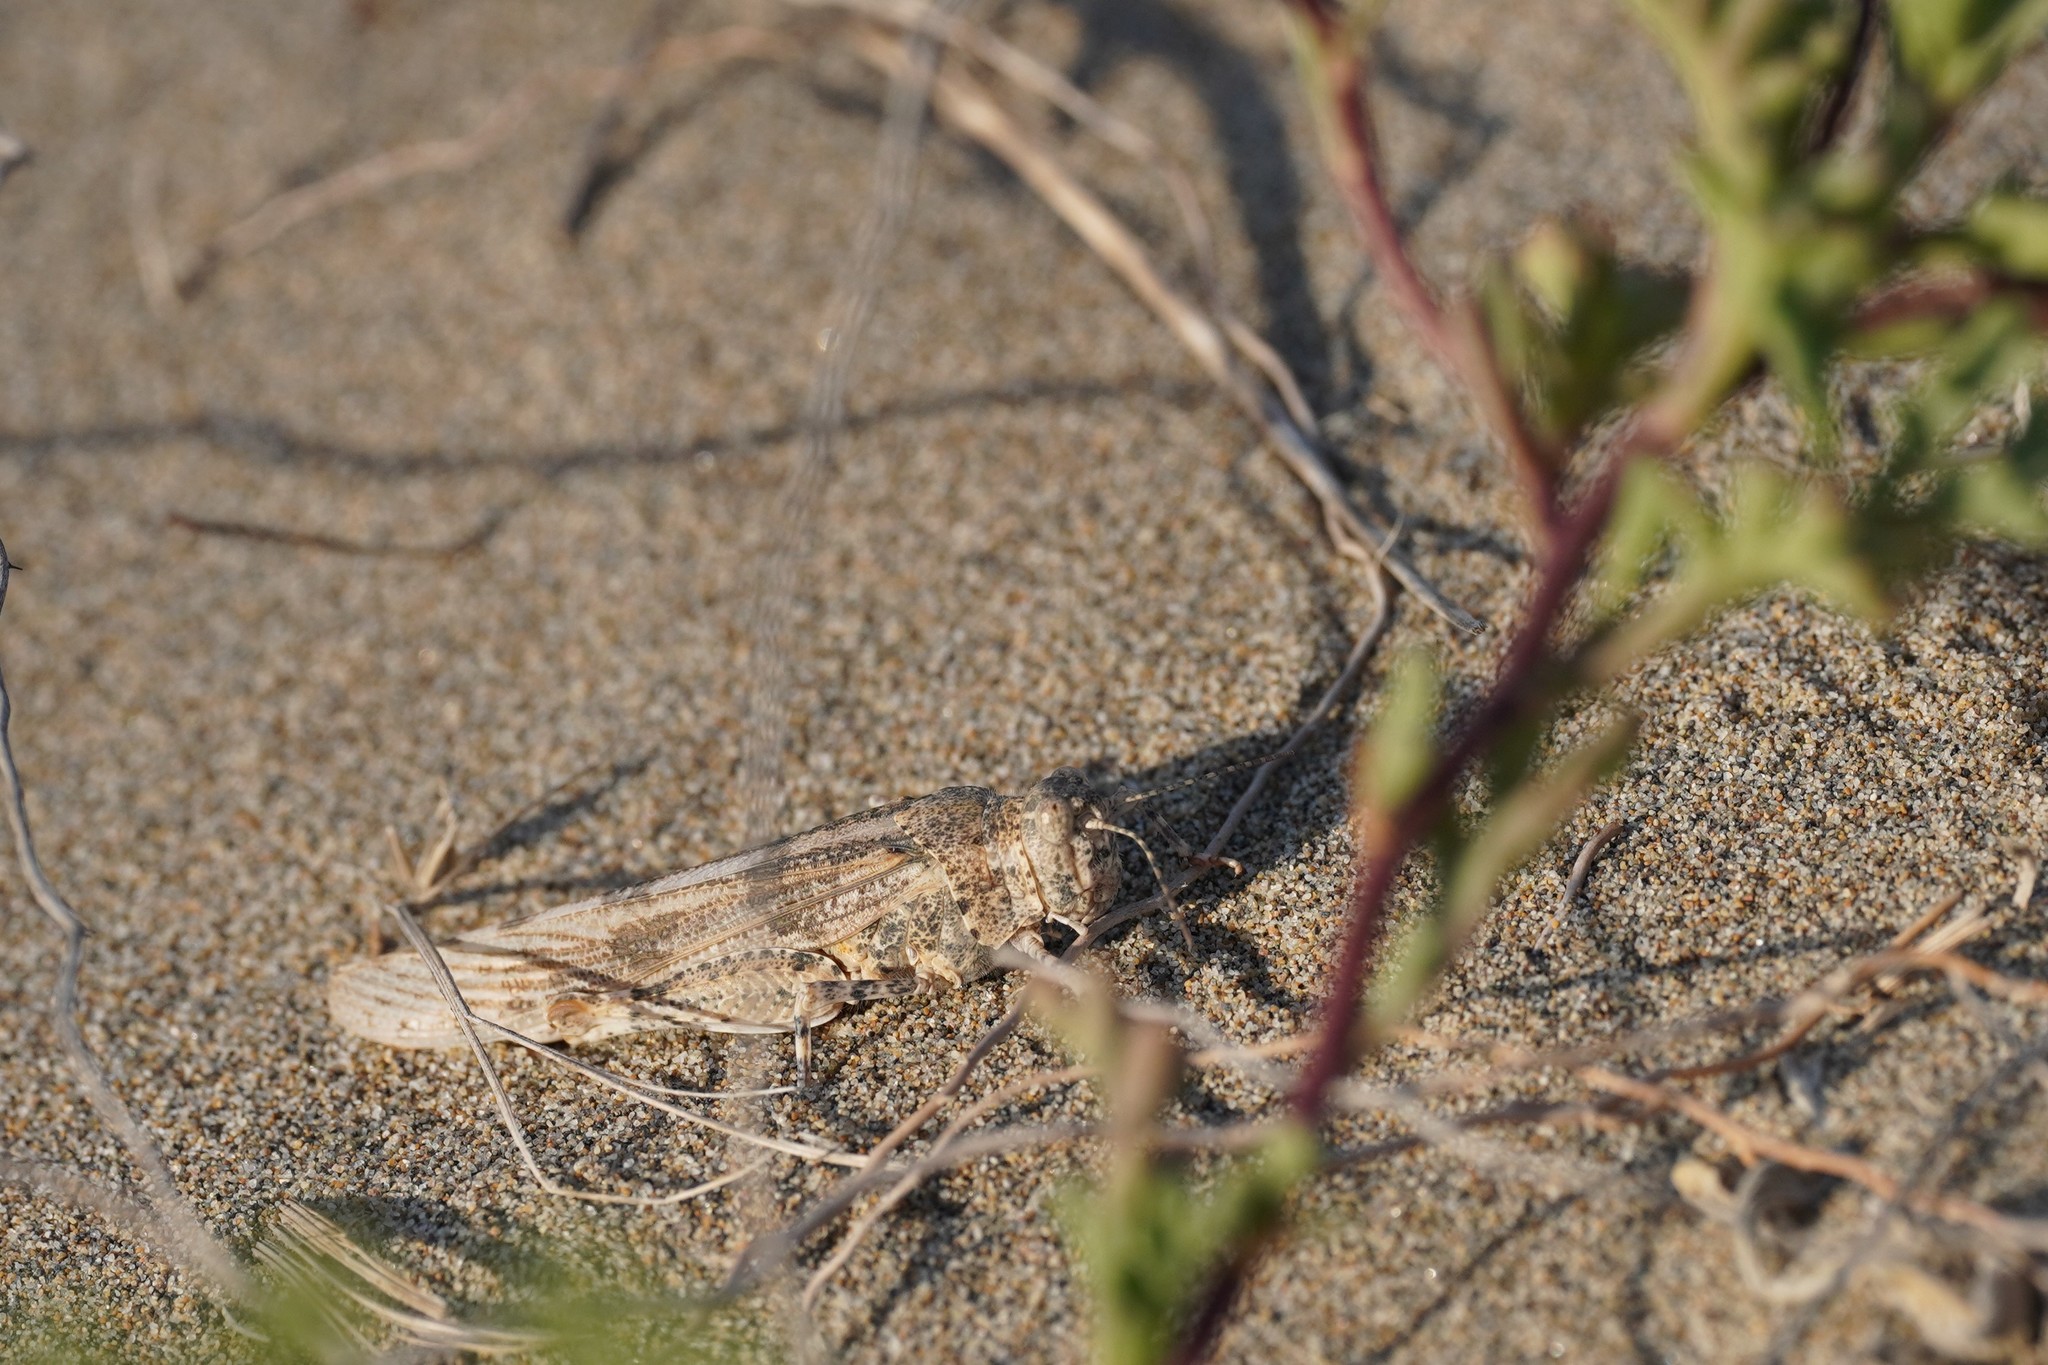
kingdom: Animalia
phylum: Arthropoda
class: Insecta
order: Orthoptera
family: Acrididae
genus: Sphingonotus
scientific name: Sphingonotus caerulans
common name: Blue-winged locust
